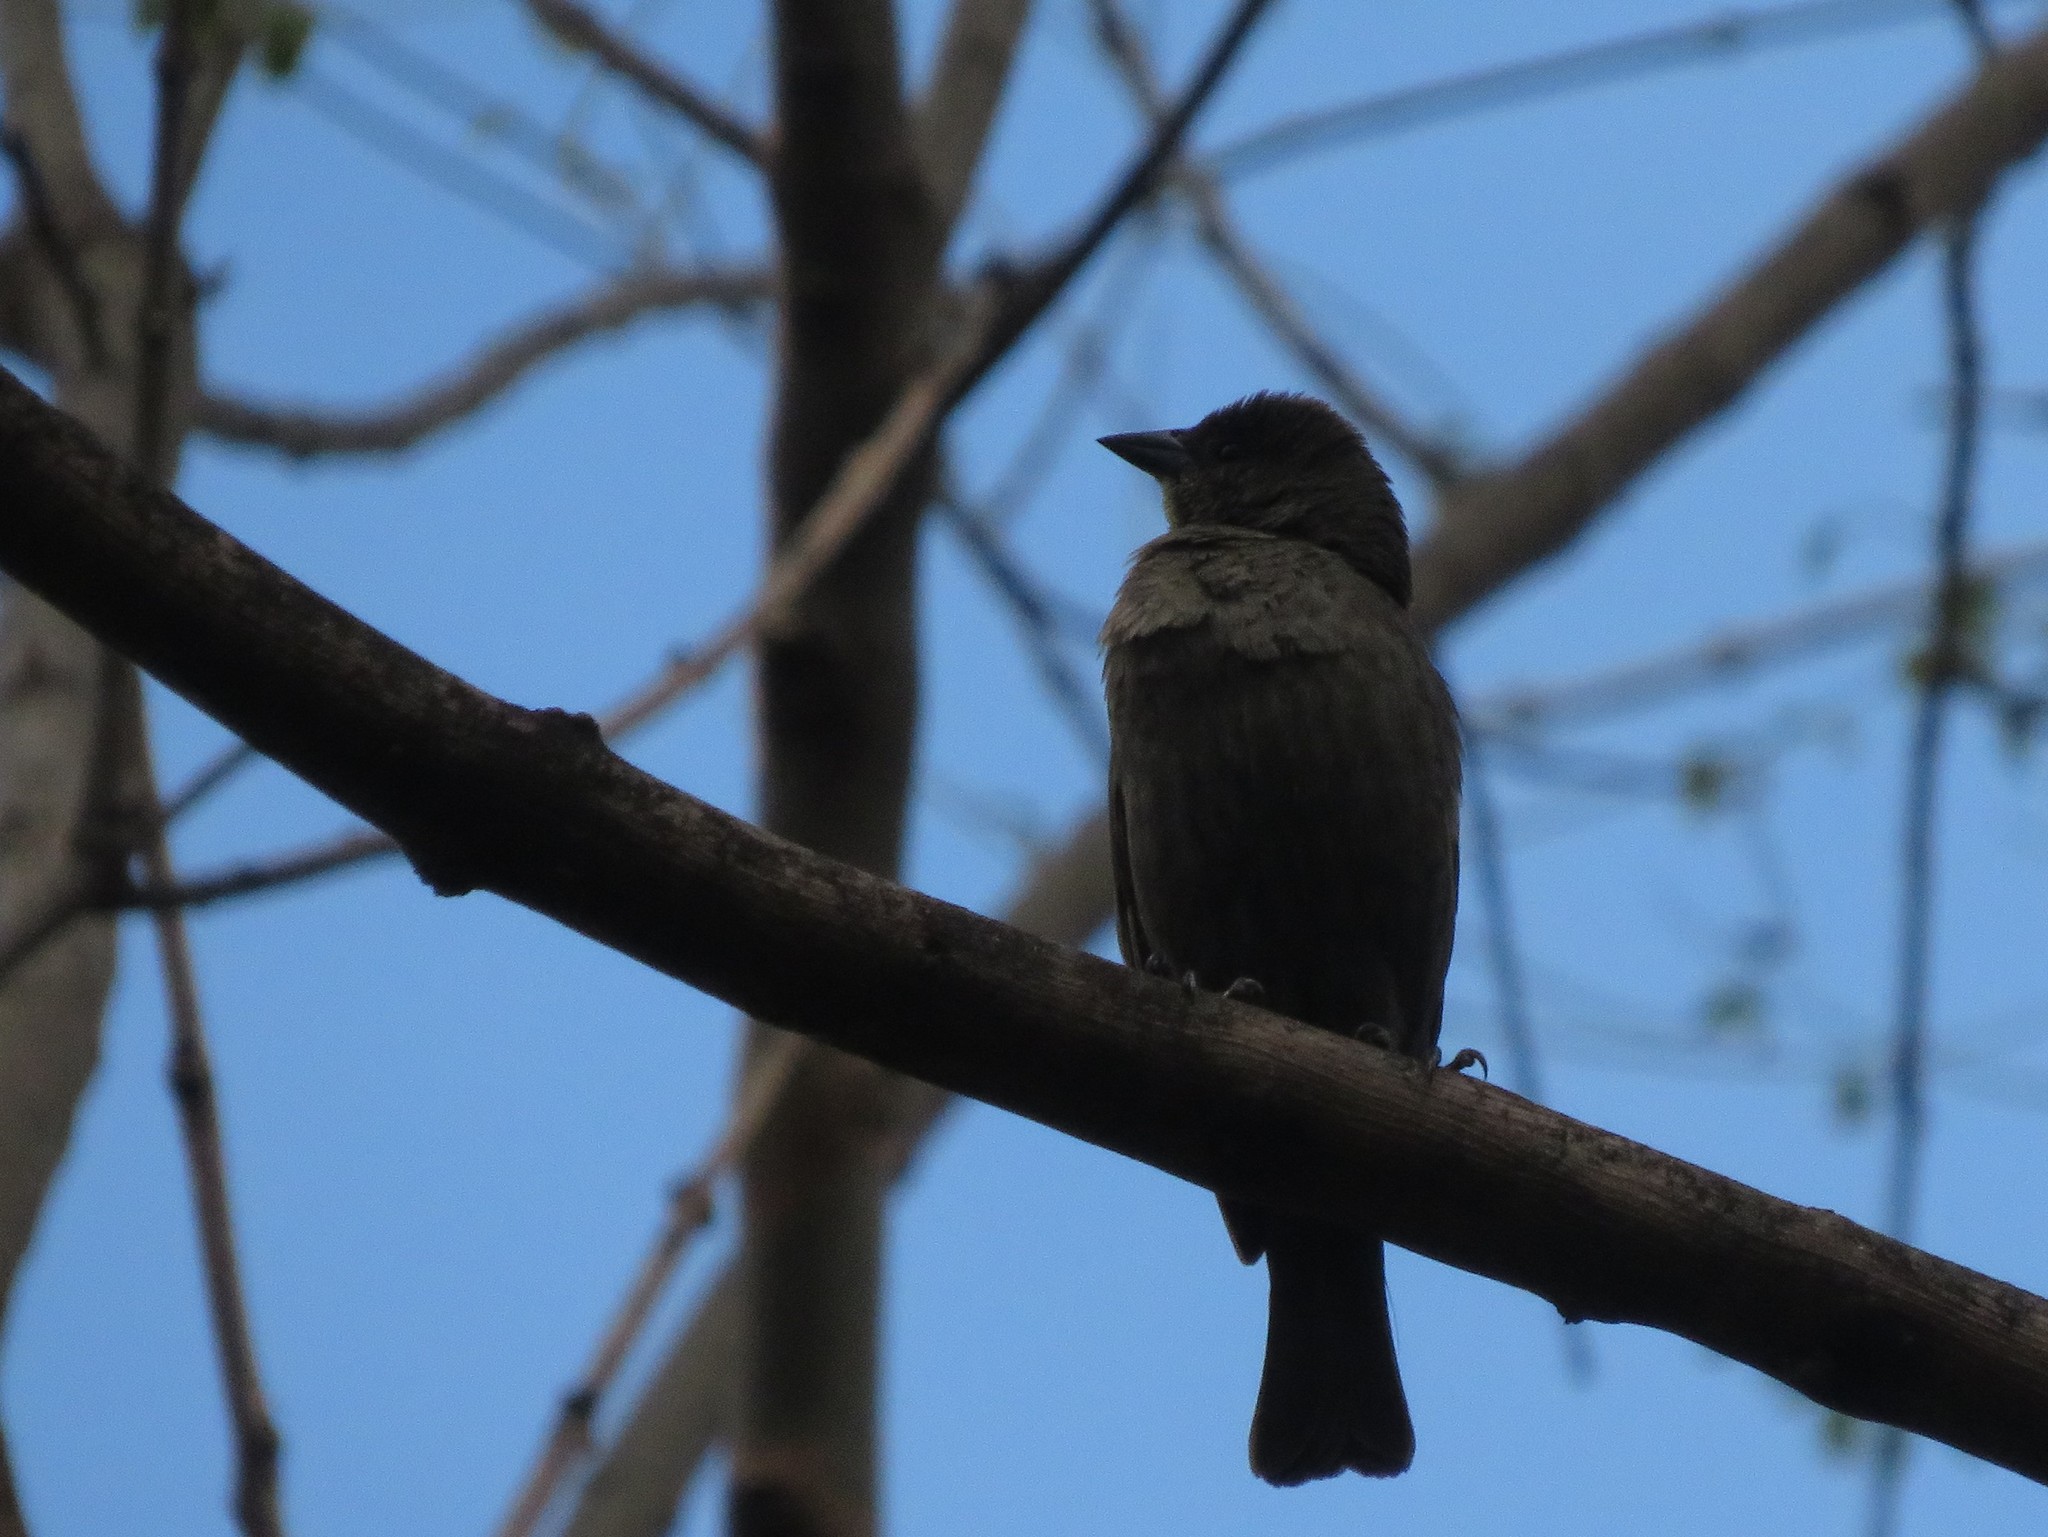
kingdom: Animalia
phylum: Chordata
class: Aves
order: Passeriformes
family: Icteridae
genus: Molothrus
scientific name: Molothrus bonariensis
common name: Shiny cowbird
